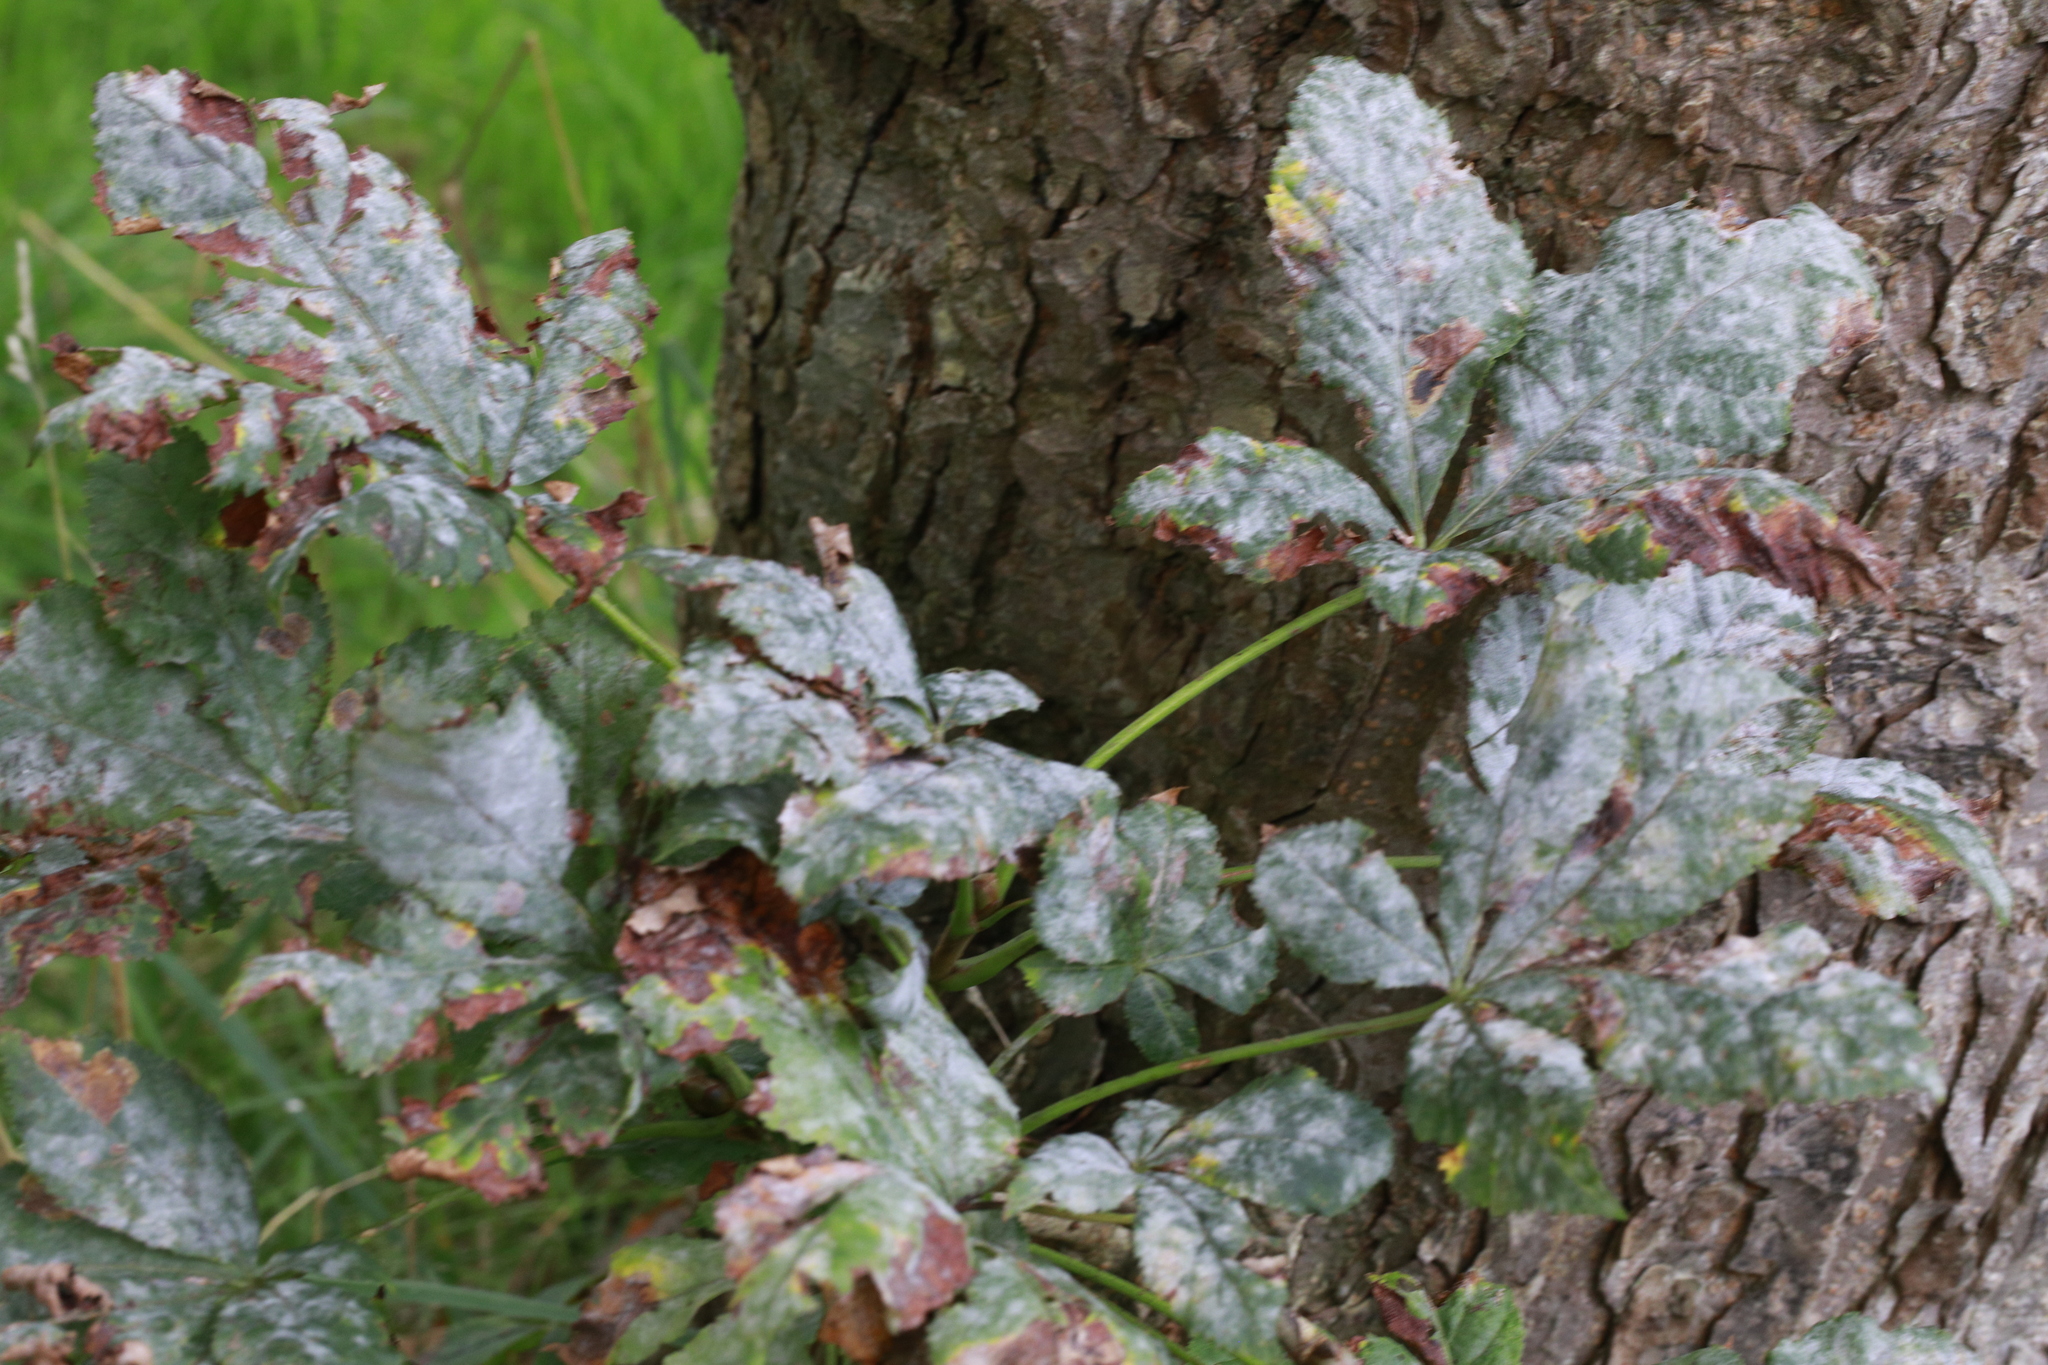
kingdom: Fungi
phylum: Ascomycota
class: Leotiomycetes
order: Helotiales
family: Erysiphaceae
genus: Erysiphe
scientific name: Erysiphe flexuosa
